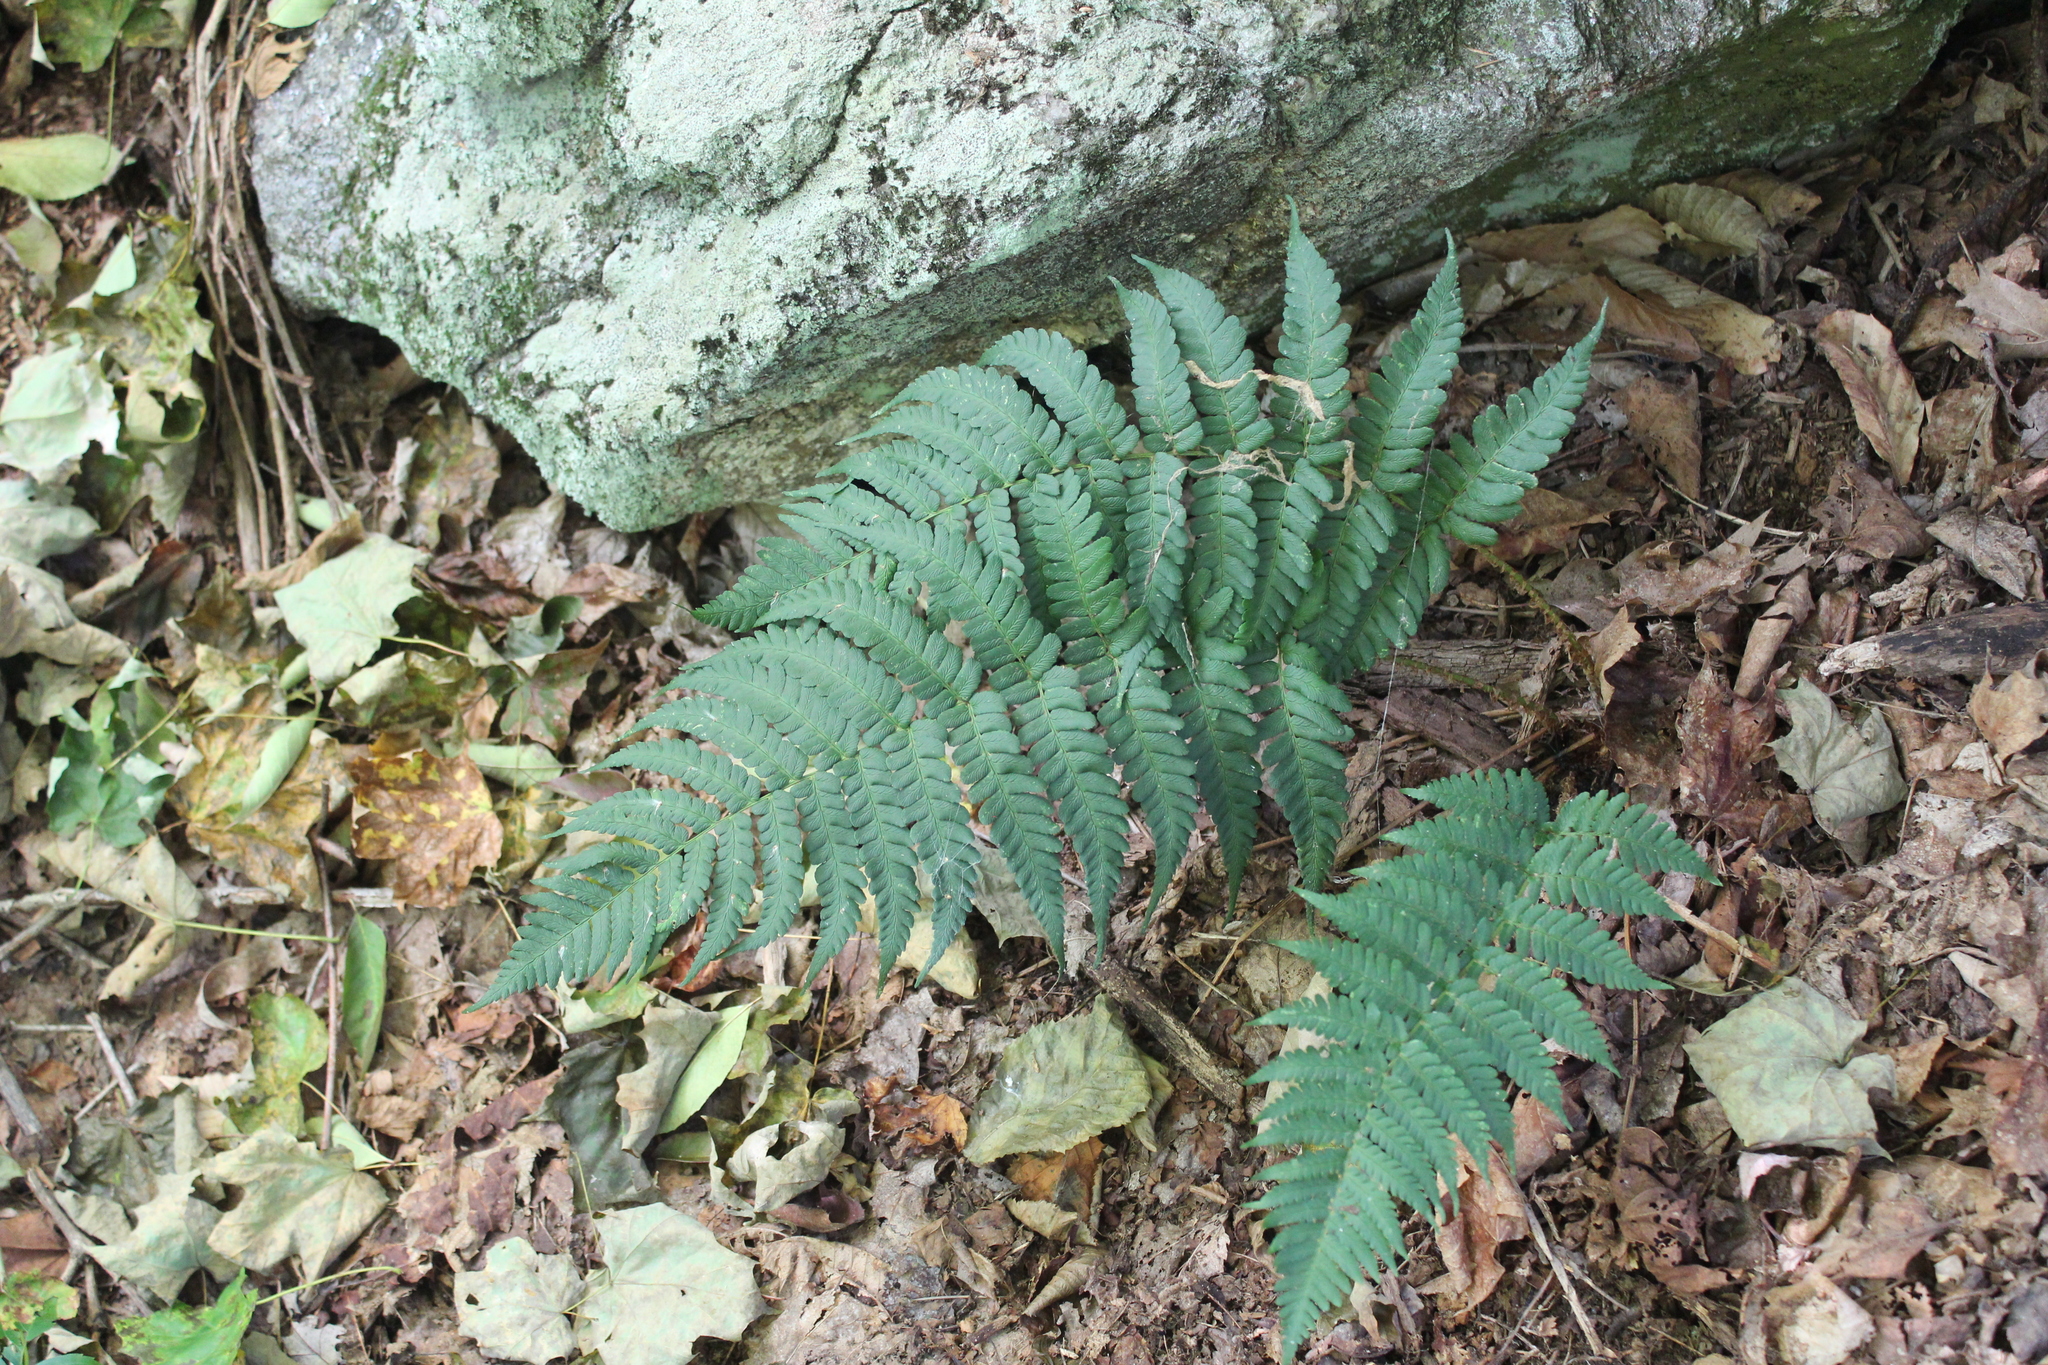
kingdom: Plantae
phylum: Tracheophyta
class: Polypodiopsida
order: Polypodiales
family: Dryopteridaceae
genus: Dryopteris
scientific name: Dryopteris marginalis
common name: Marginal wood fern
